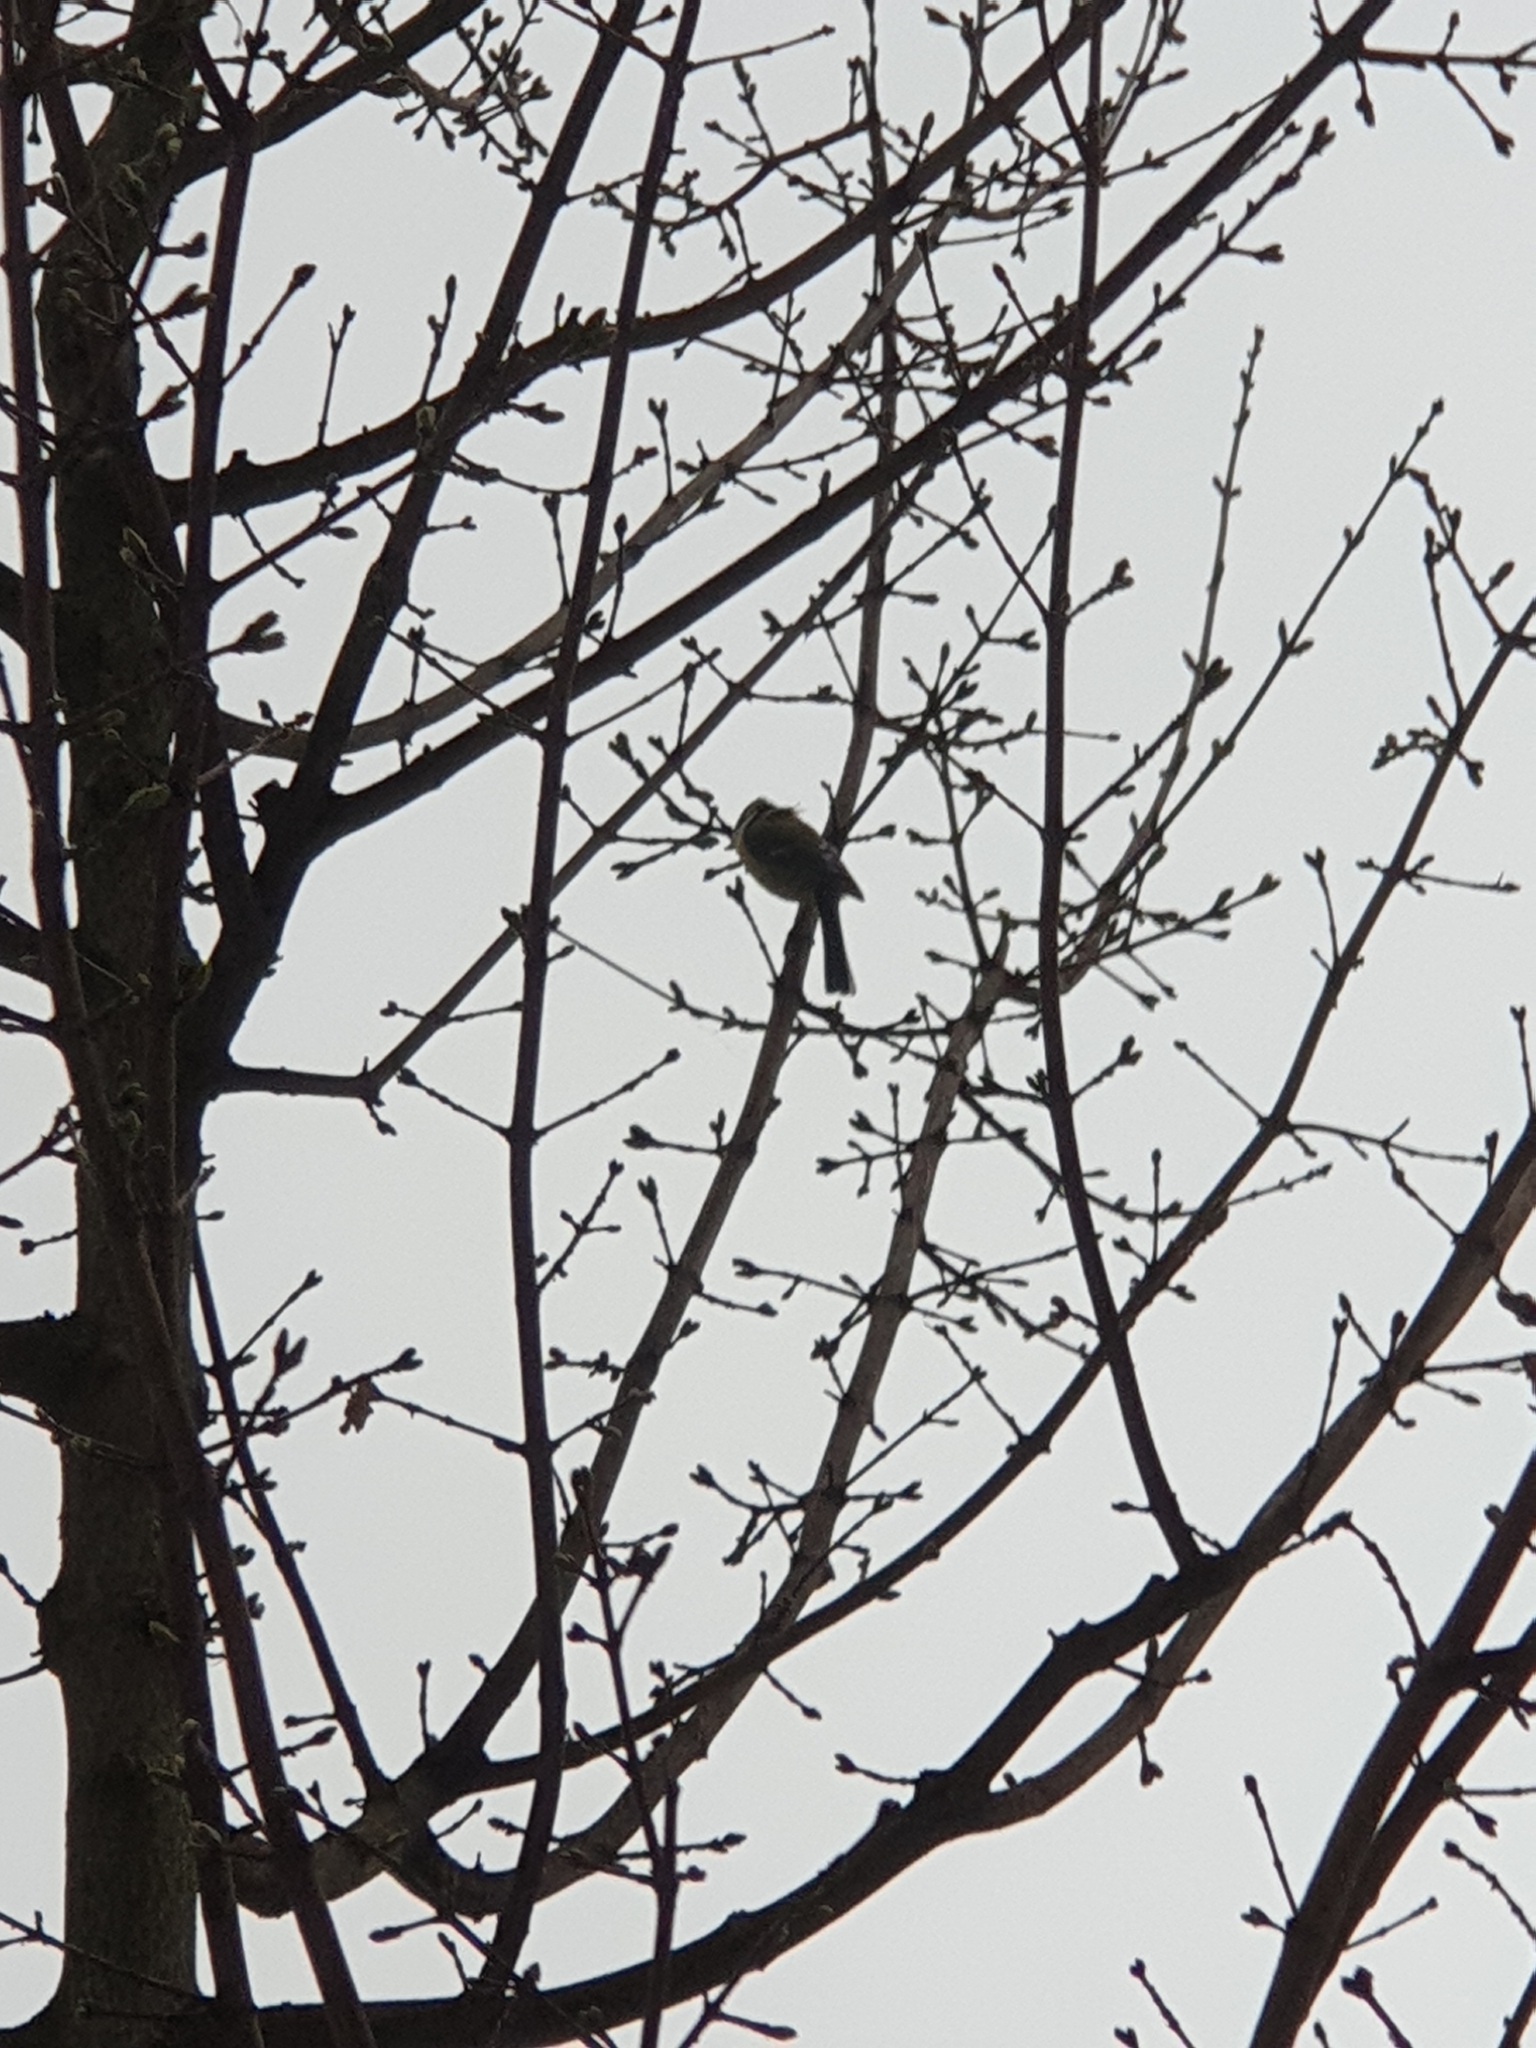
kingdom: Animalia
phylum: Chordata
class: Aves
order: Passeriformes
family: Paridae
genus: Cyanistes
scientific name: Cyanistes caeruleus
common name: Eurasian blue tit
